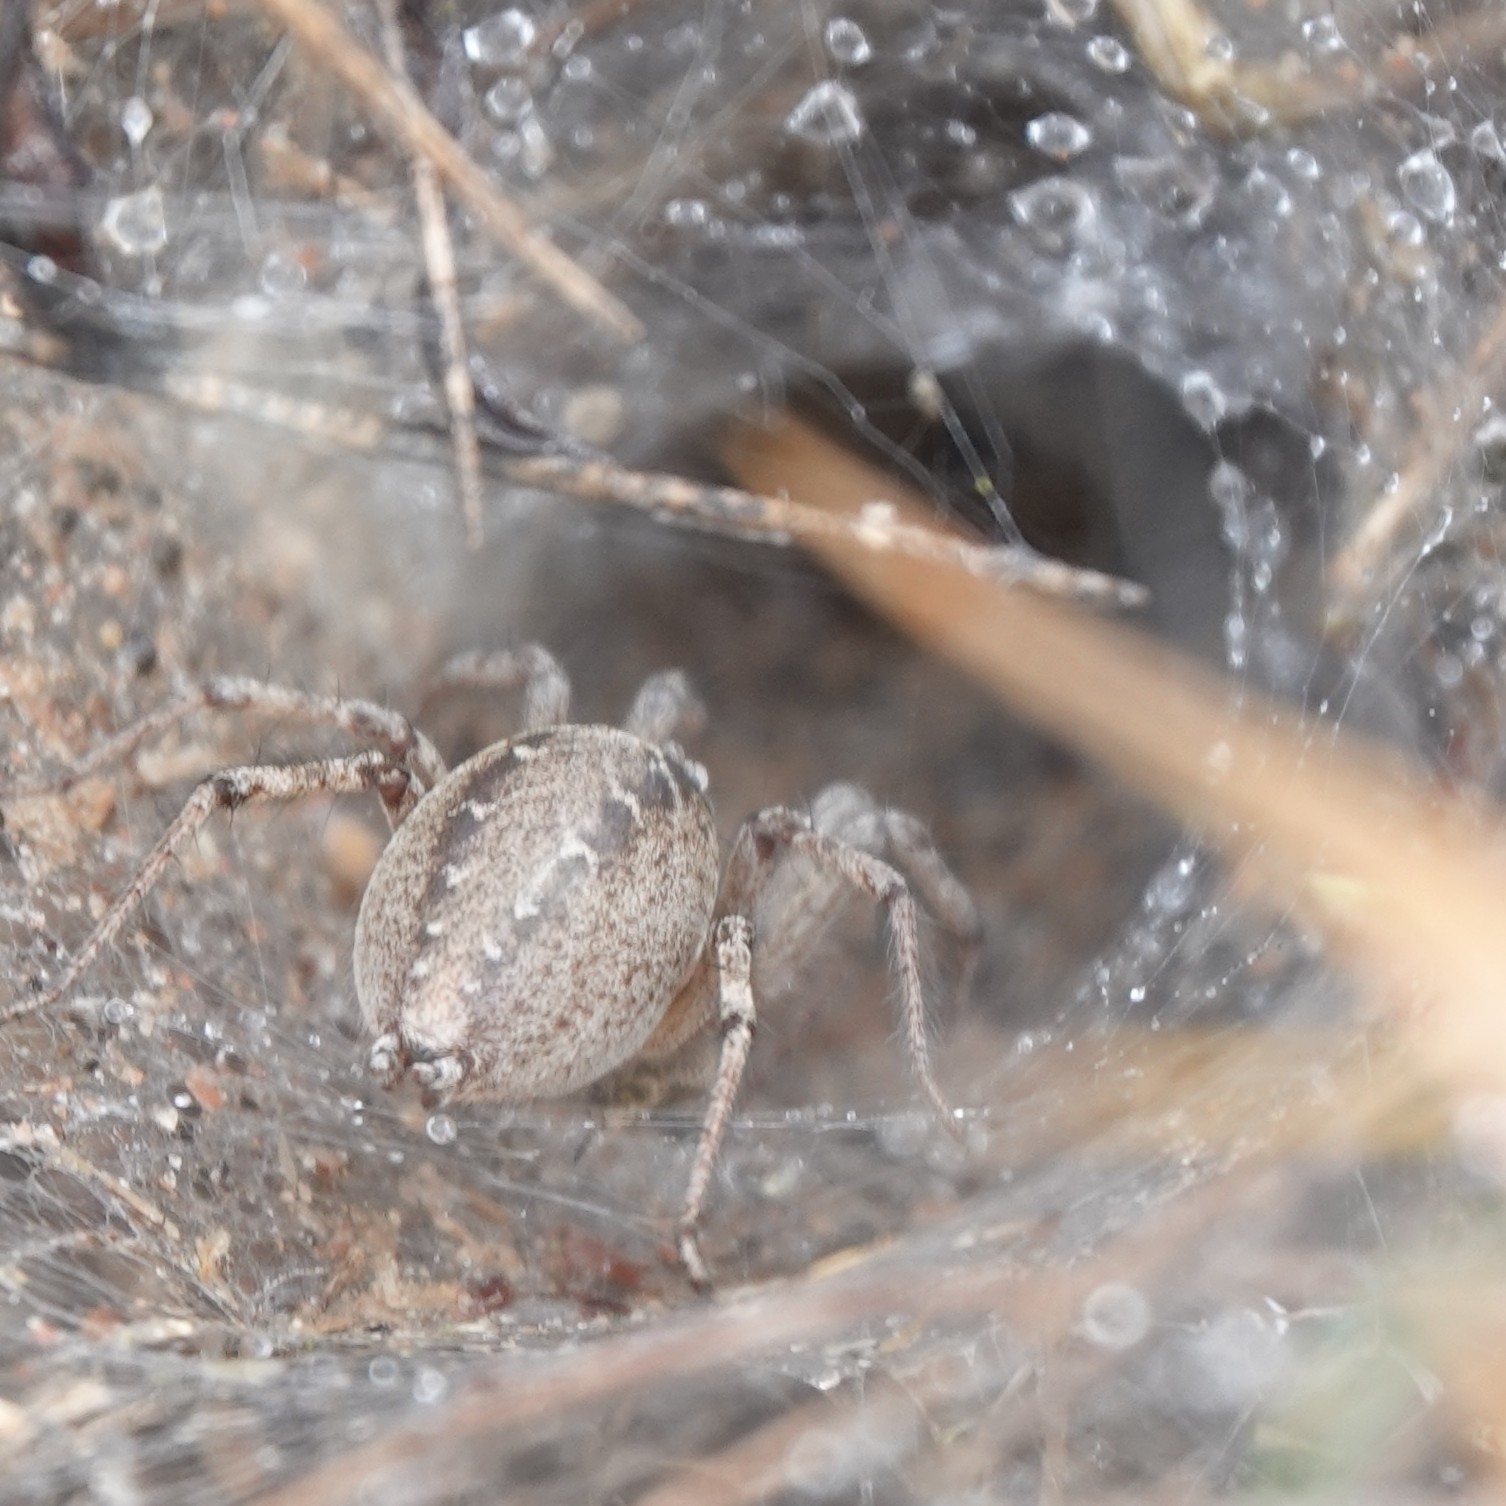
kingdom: Animalia
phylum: Arthropoda
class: Arachnida
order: Araneae
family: Agelenidae
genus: Agelena
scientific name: Agelena labyrinthica
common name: Labyrinth spider
